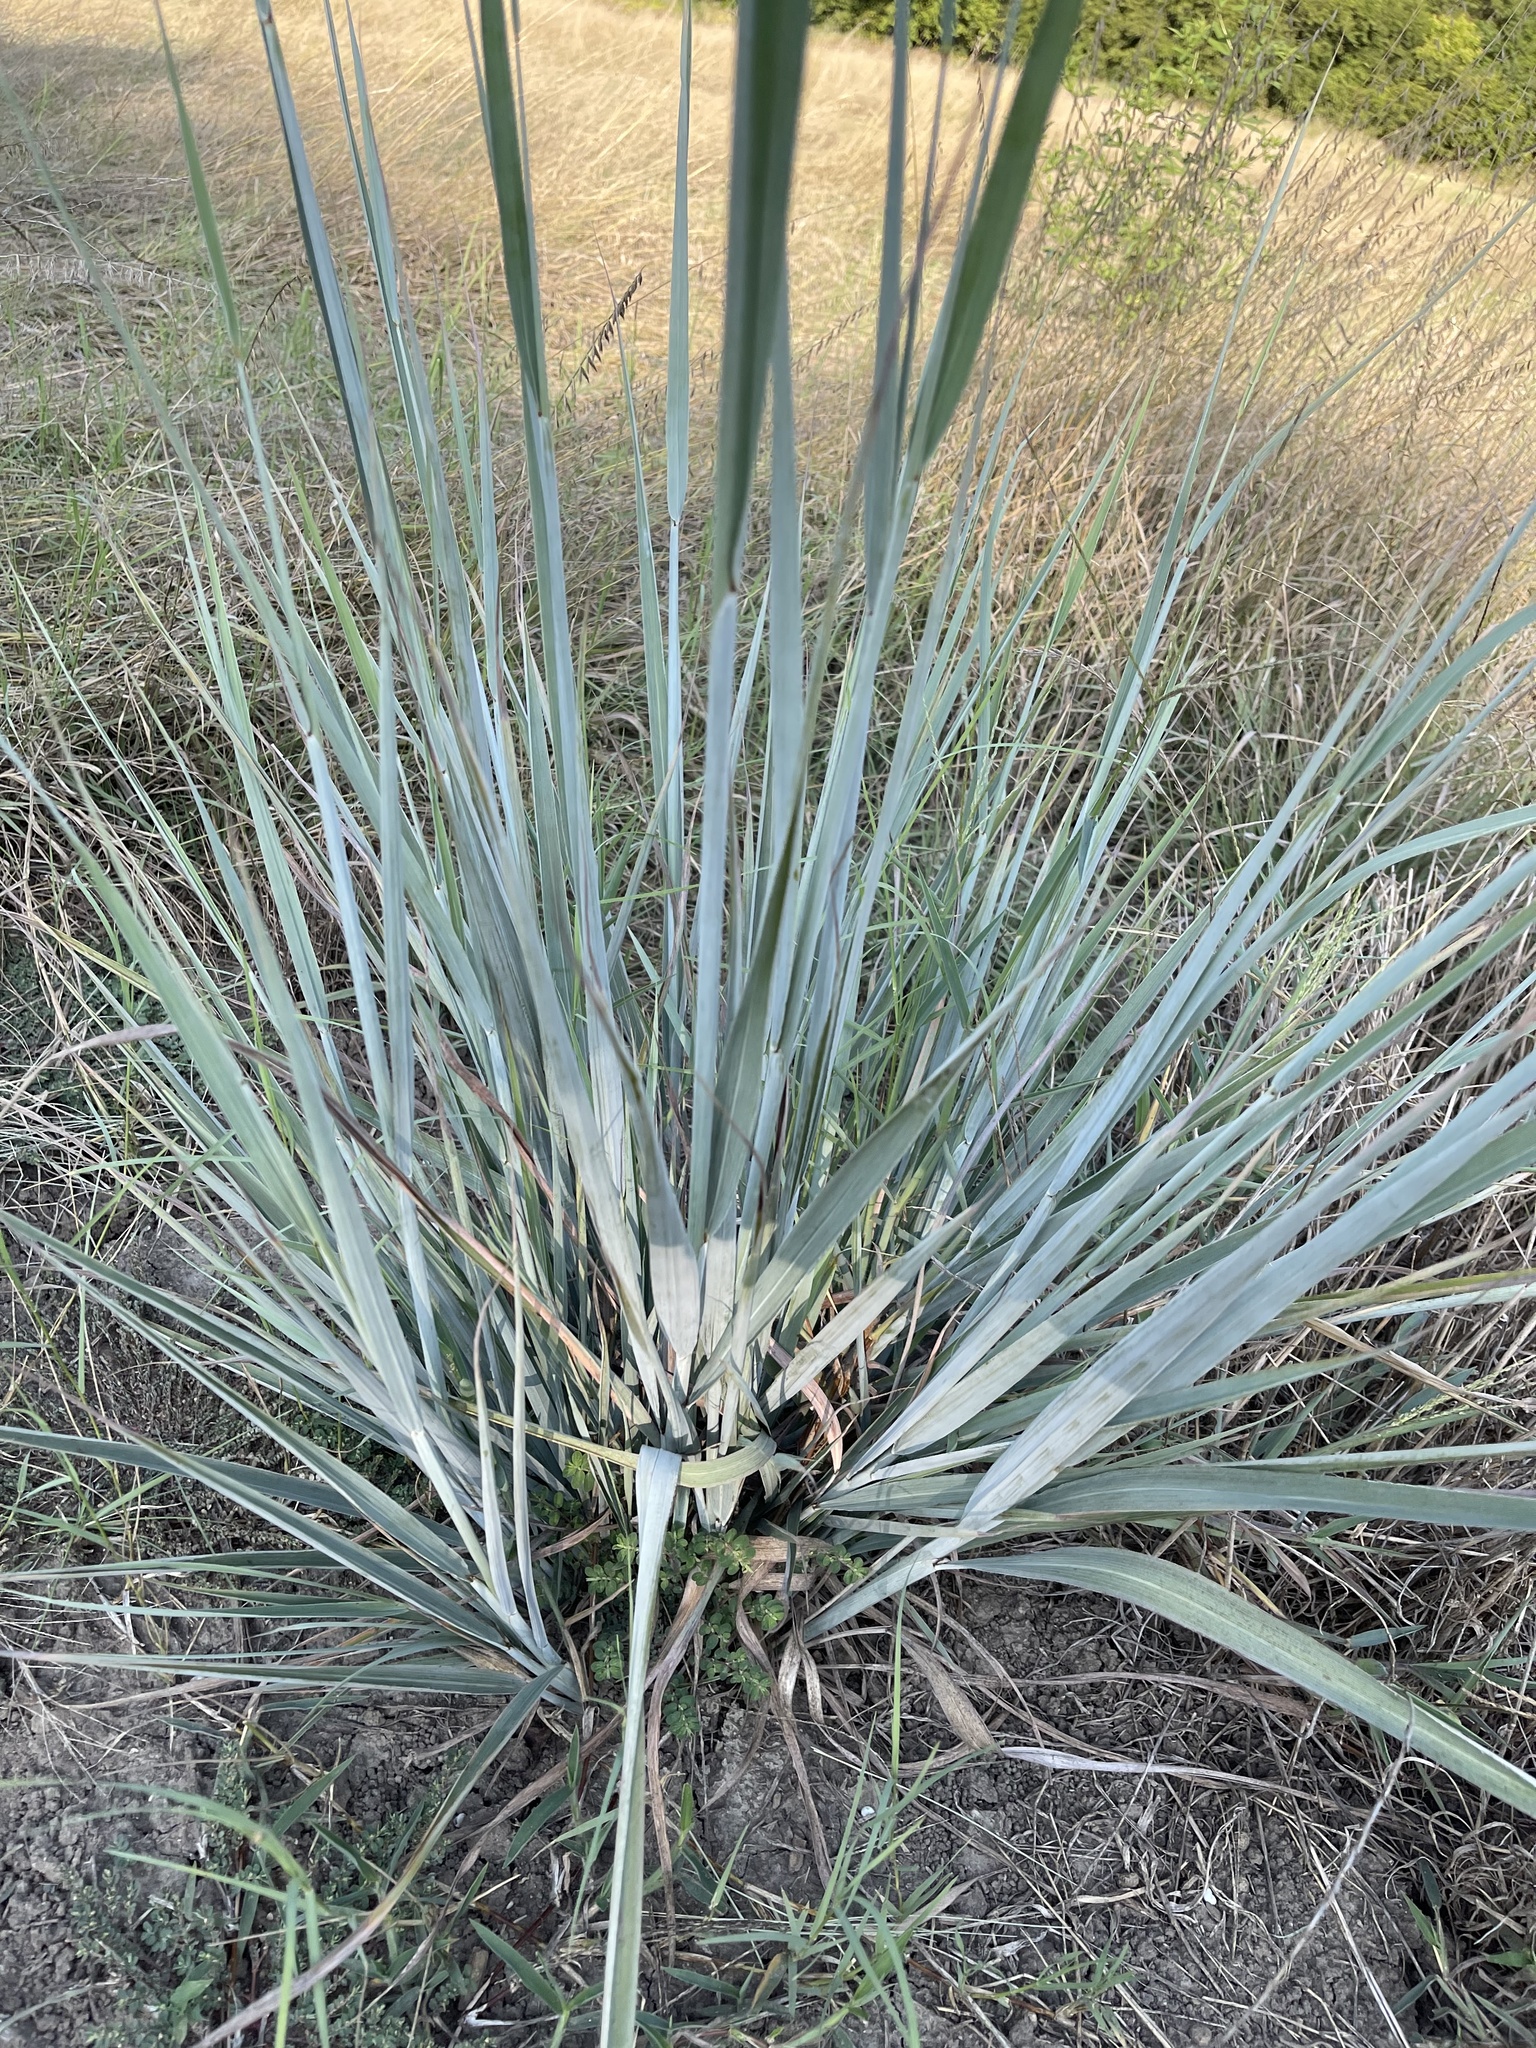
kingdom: Plantae
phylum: Tracheophyta
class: Liliopsida
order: Poales
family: Poaceae
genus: Sorghastrum
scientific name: Sorghastrum nutans
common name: Indian grass
